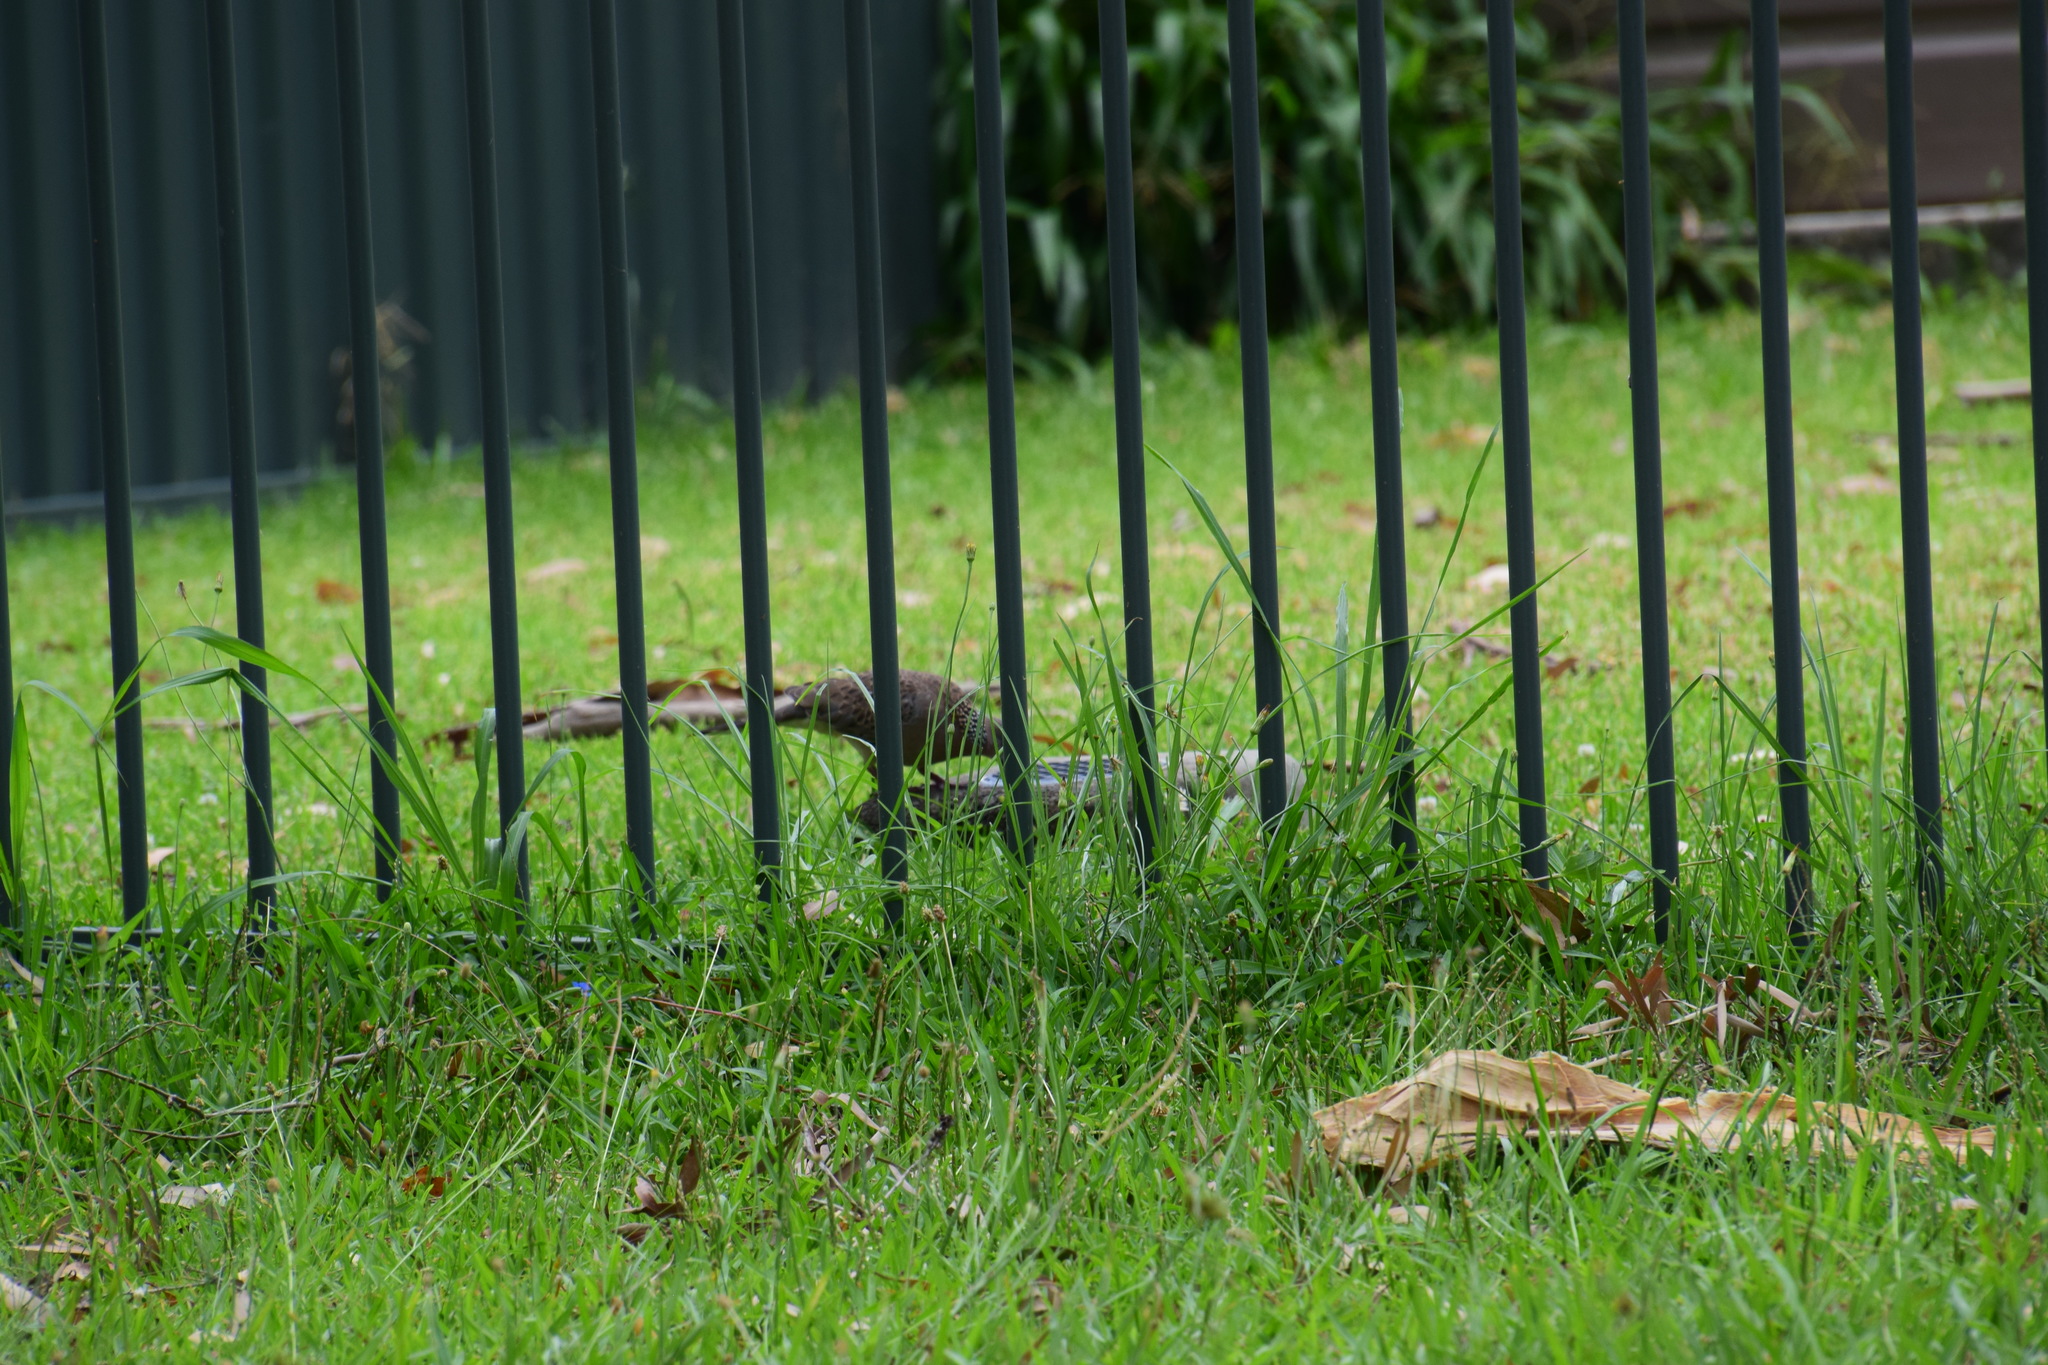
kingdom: Animalia
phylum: Chordata
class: Aves
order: Columbiformes
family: Columbidae
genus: Spilopelia
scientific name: Spilopelia chinensis
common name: Spotted dove
